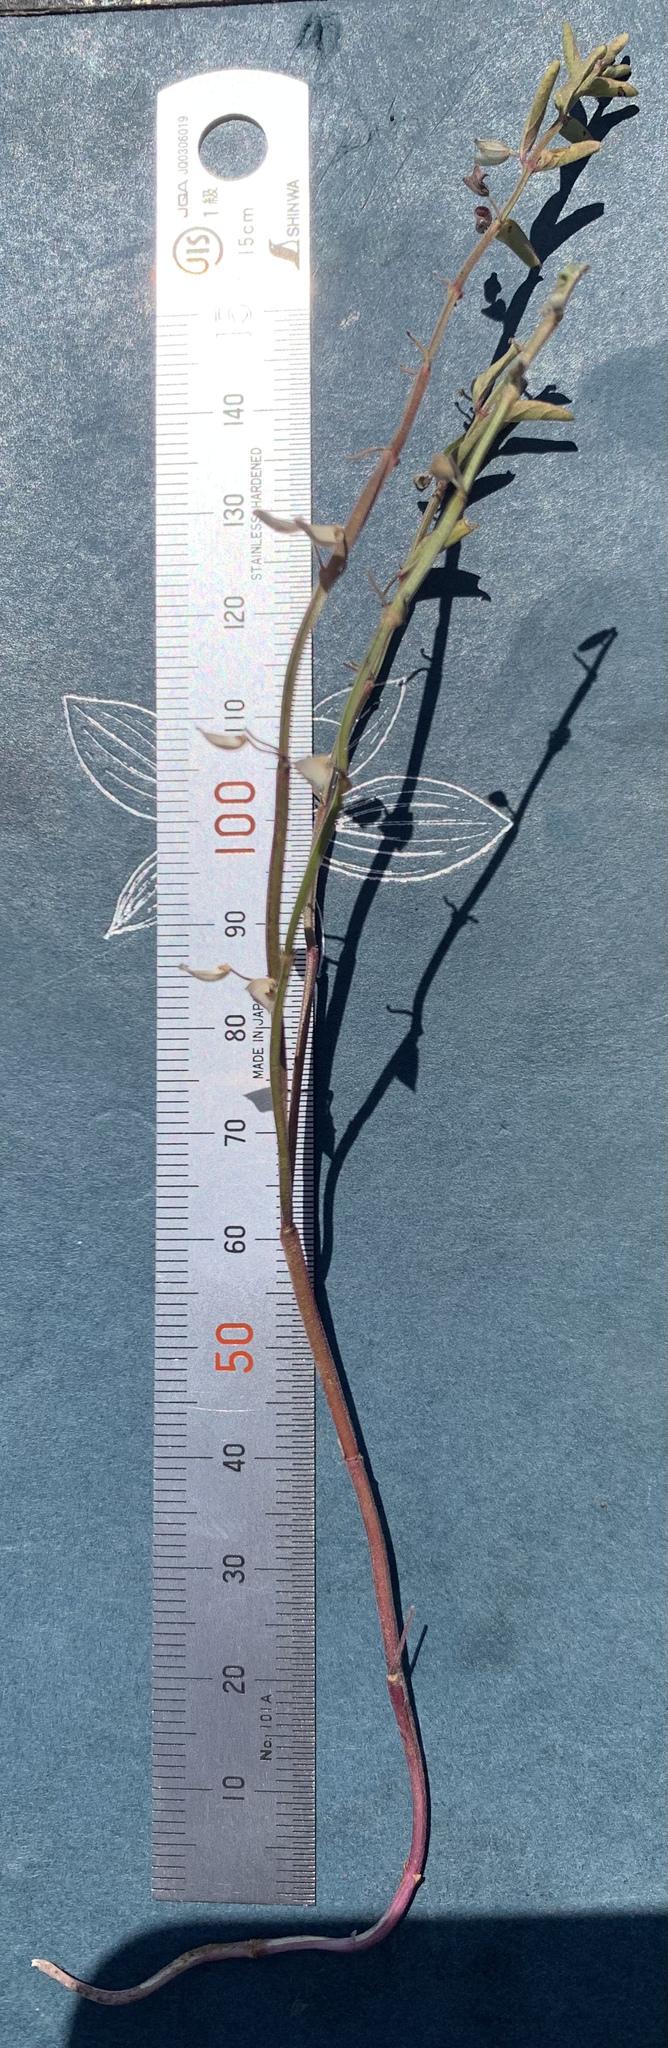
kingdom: Plantae
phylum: Tracheophyta
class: Magnoliopsida
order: Lamiales
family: Lamiaceae
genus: Scutellaria
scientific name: Scutellaria angustifolia
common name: Narrow-leaved skullcap
